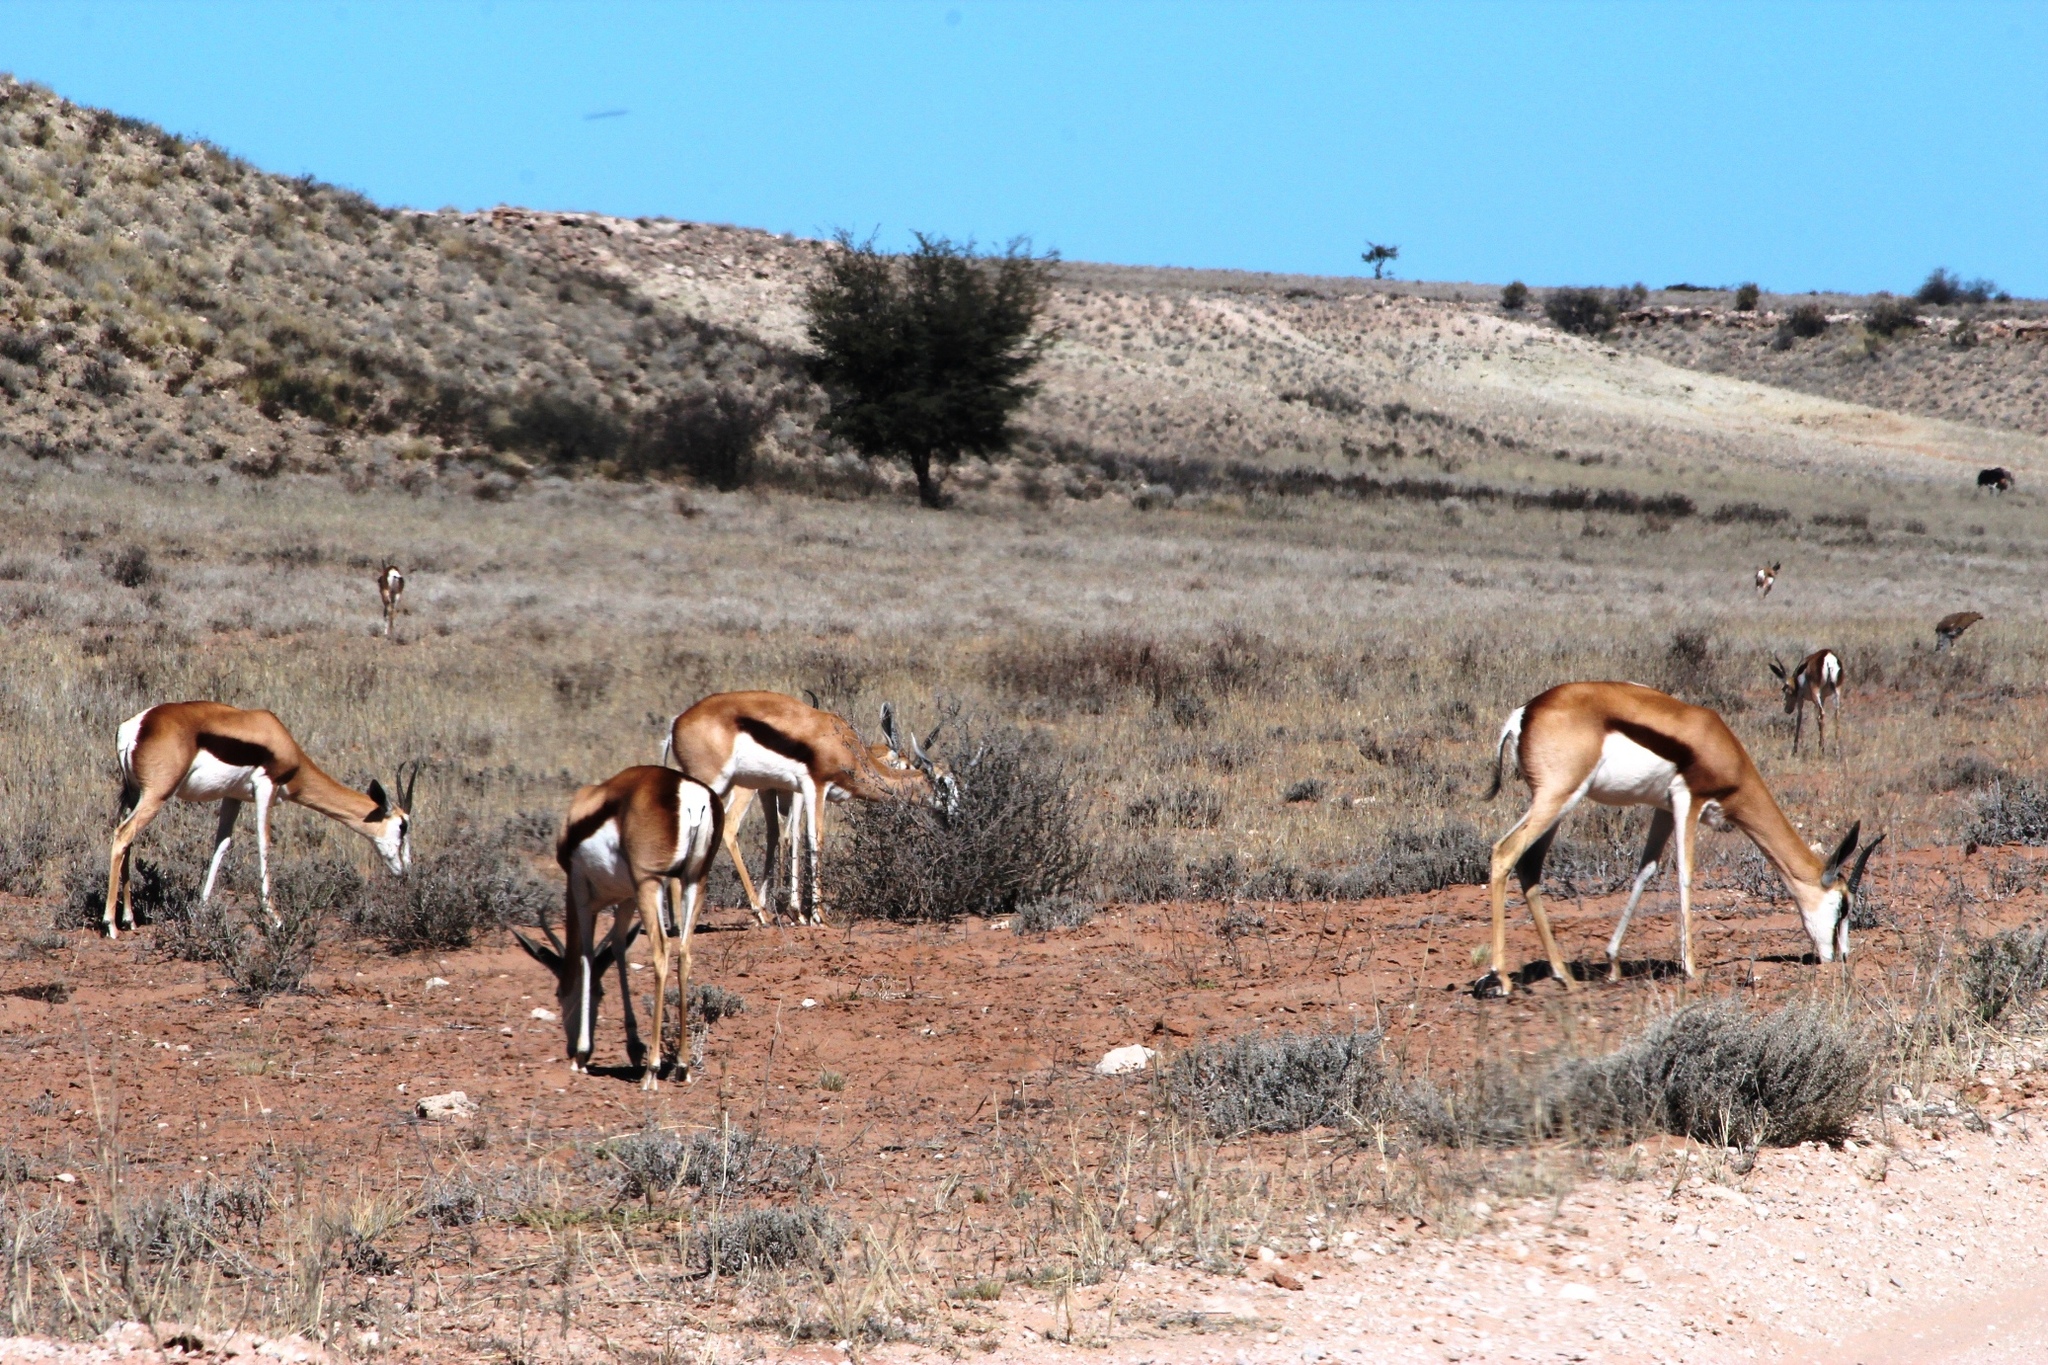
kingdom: Animalia
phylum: Chordata
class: Mammalia
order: Artiodactyla
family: Bovidae
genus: Antidorcas
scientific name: Antidorcas marsupialis
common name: Springbok
